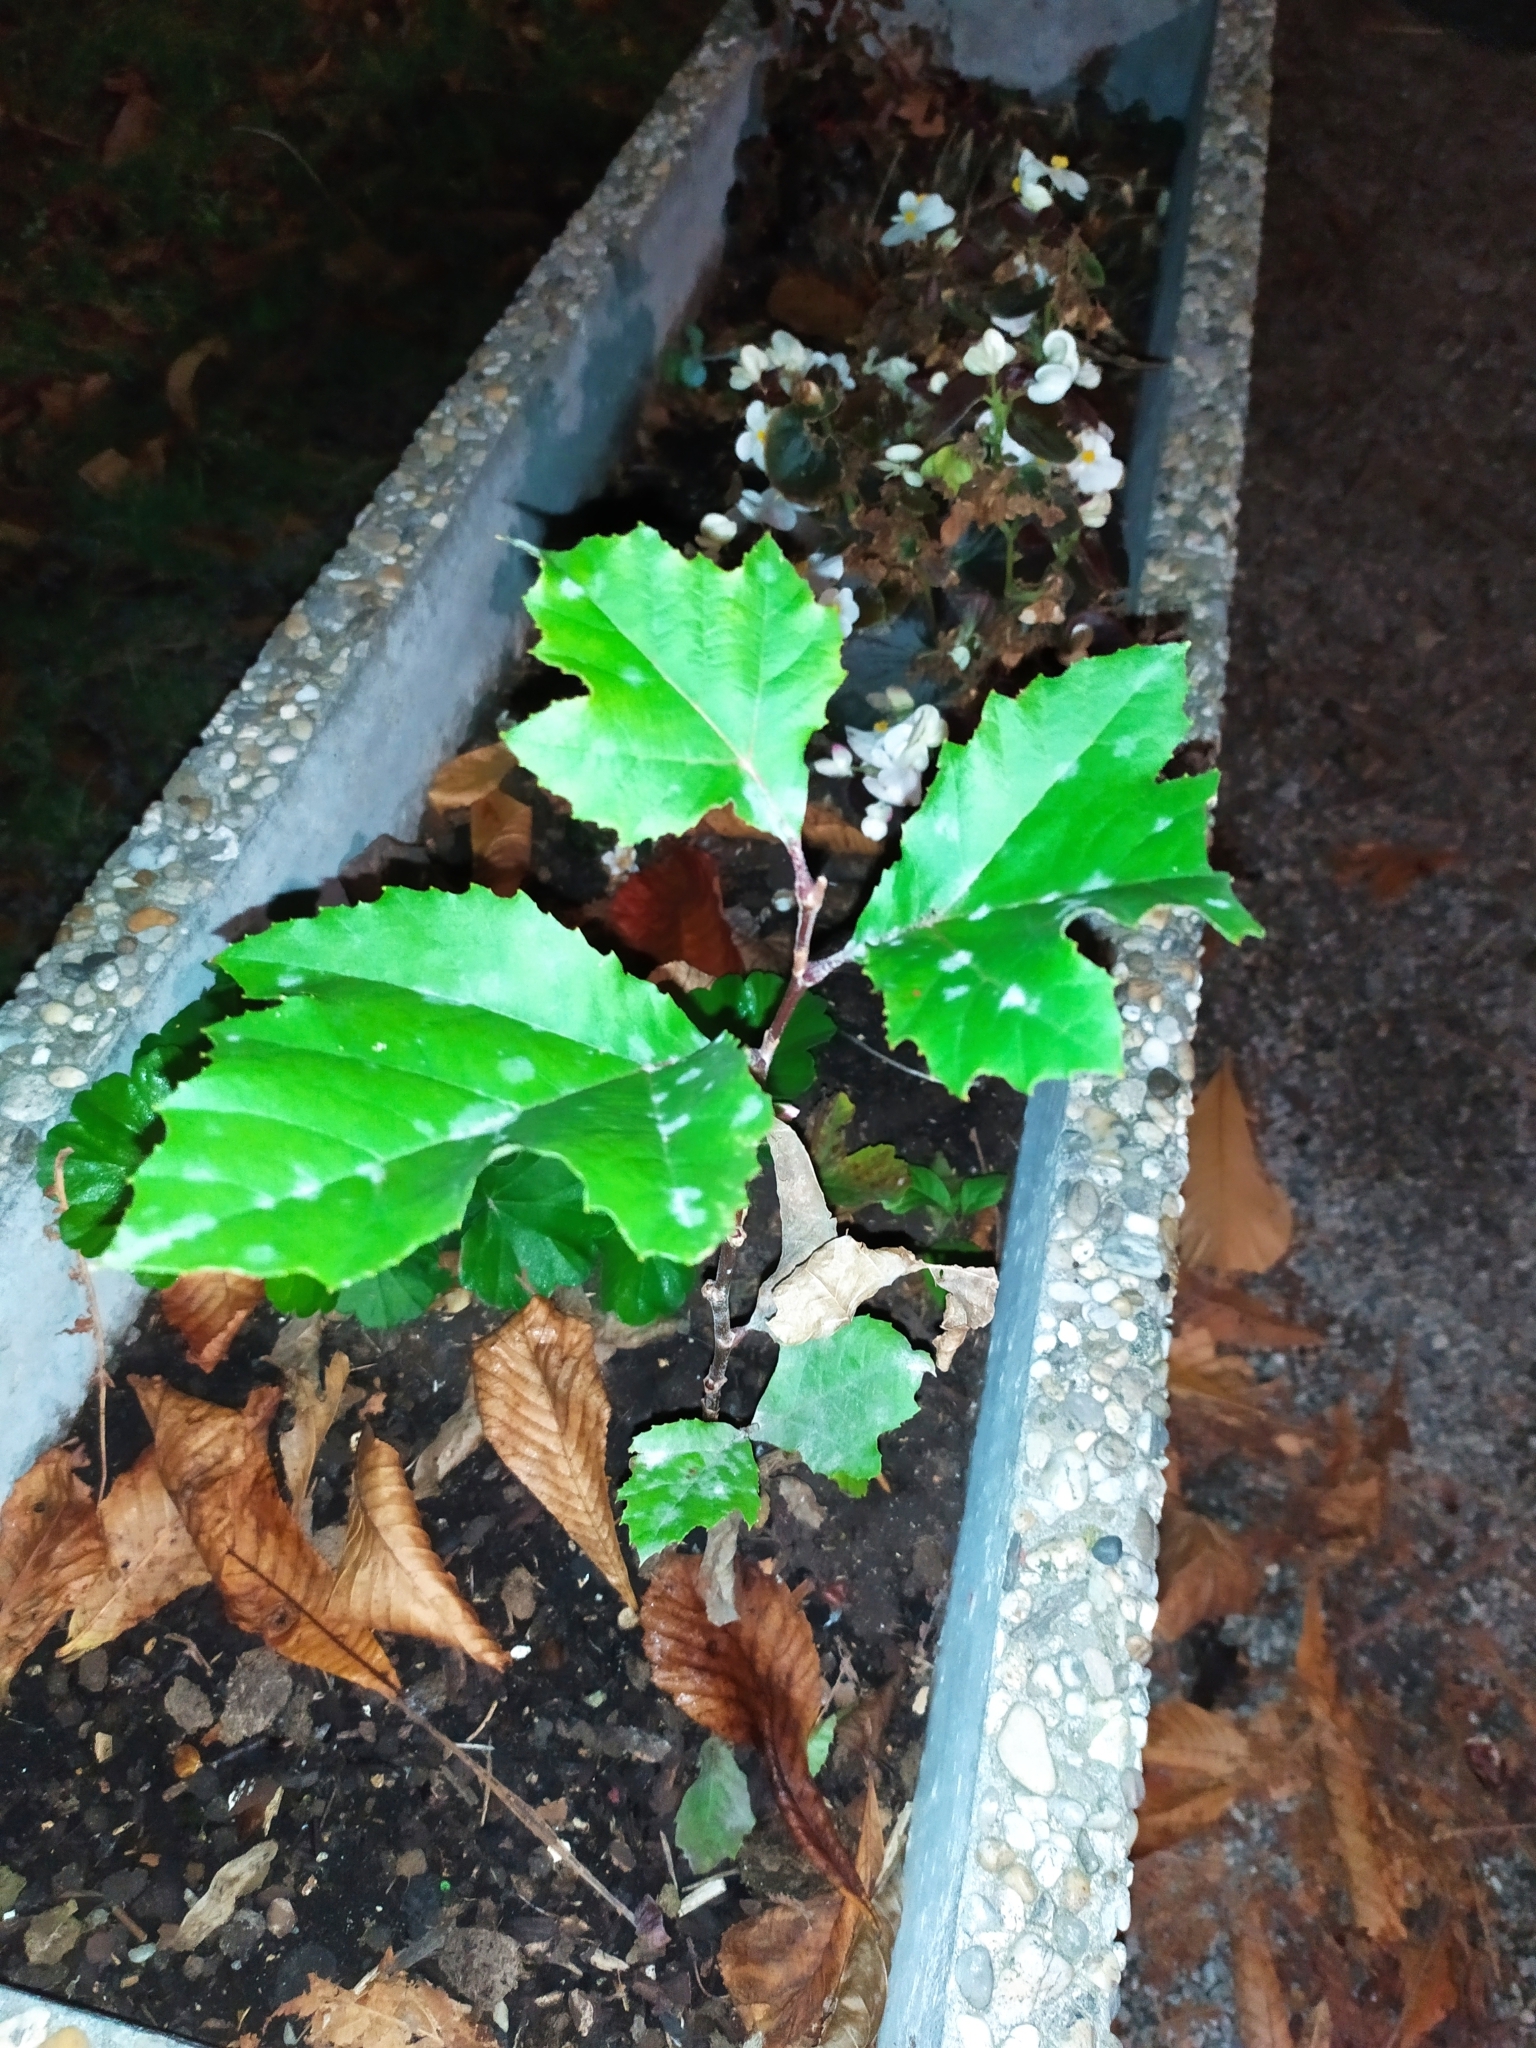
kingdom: Fungi
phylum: Ascomycota
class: Leotiomycetes
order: Helotiales
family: Erysiphaceae
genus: Erysiphe
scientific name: Erysiphe platani
